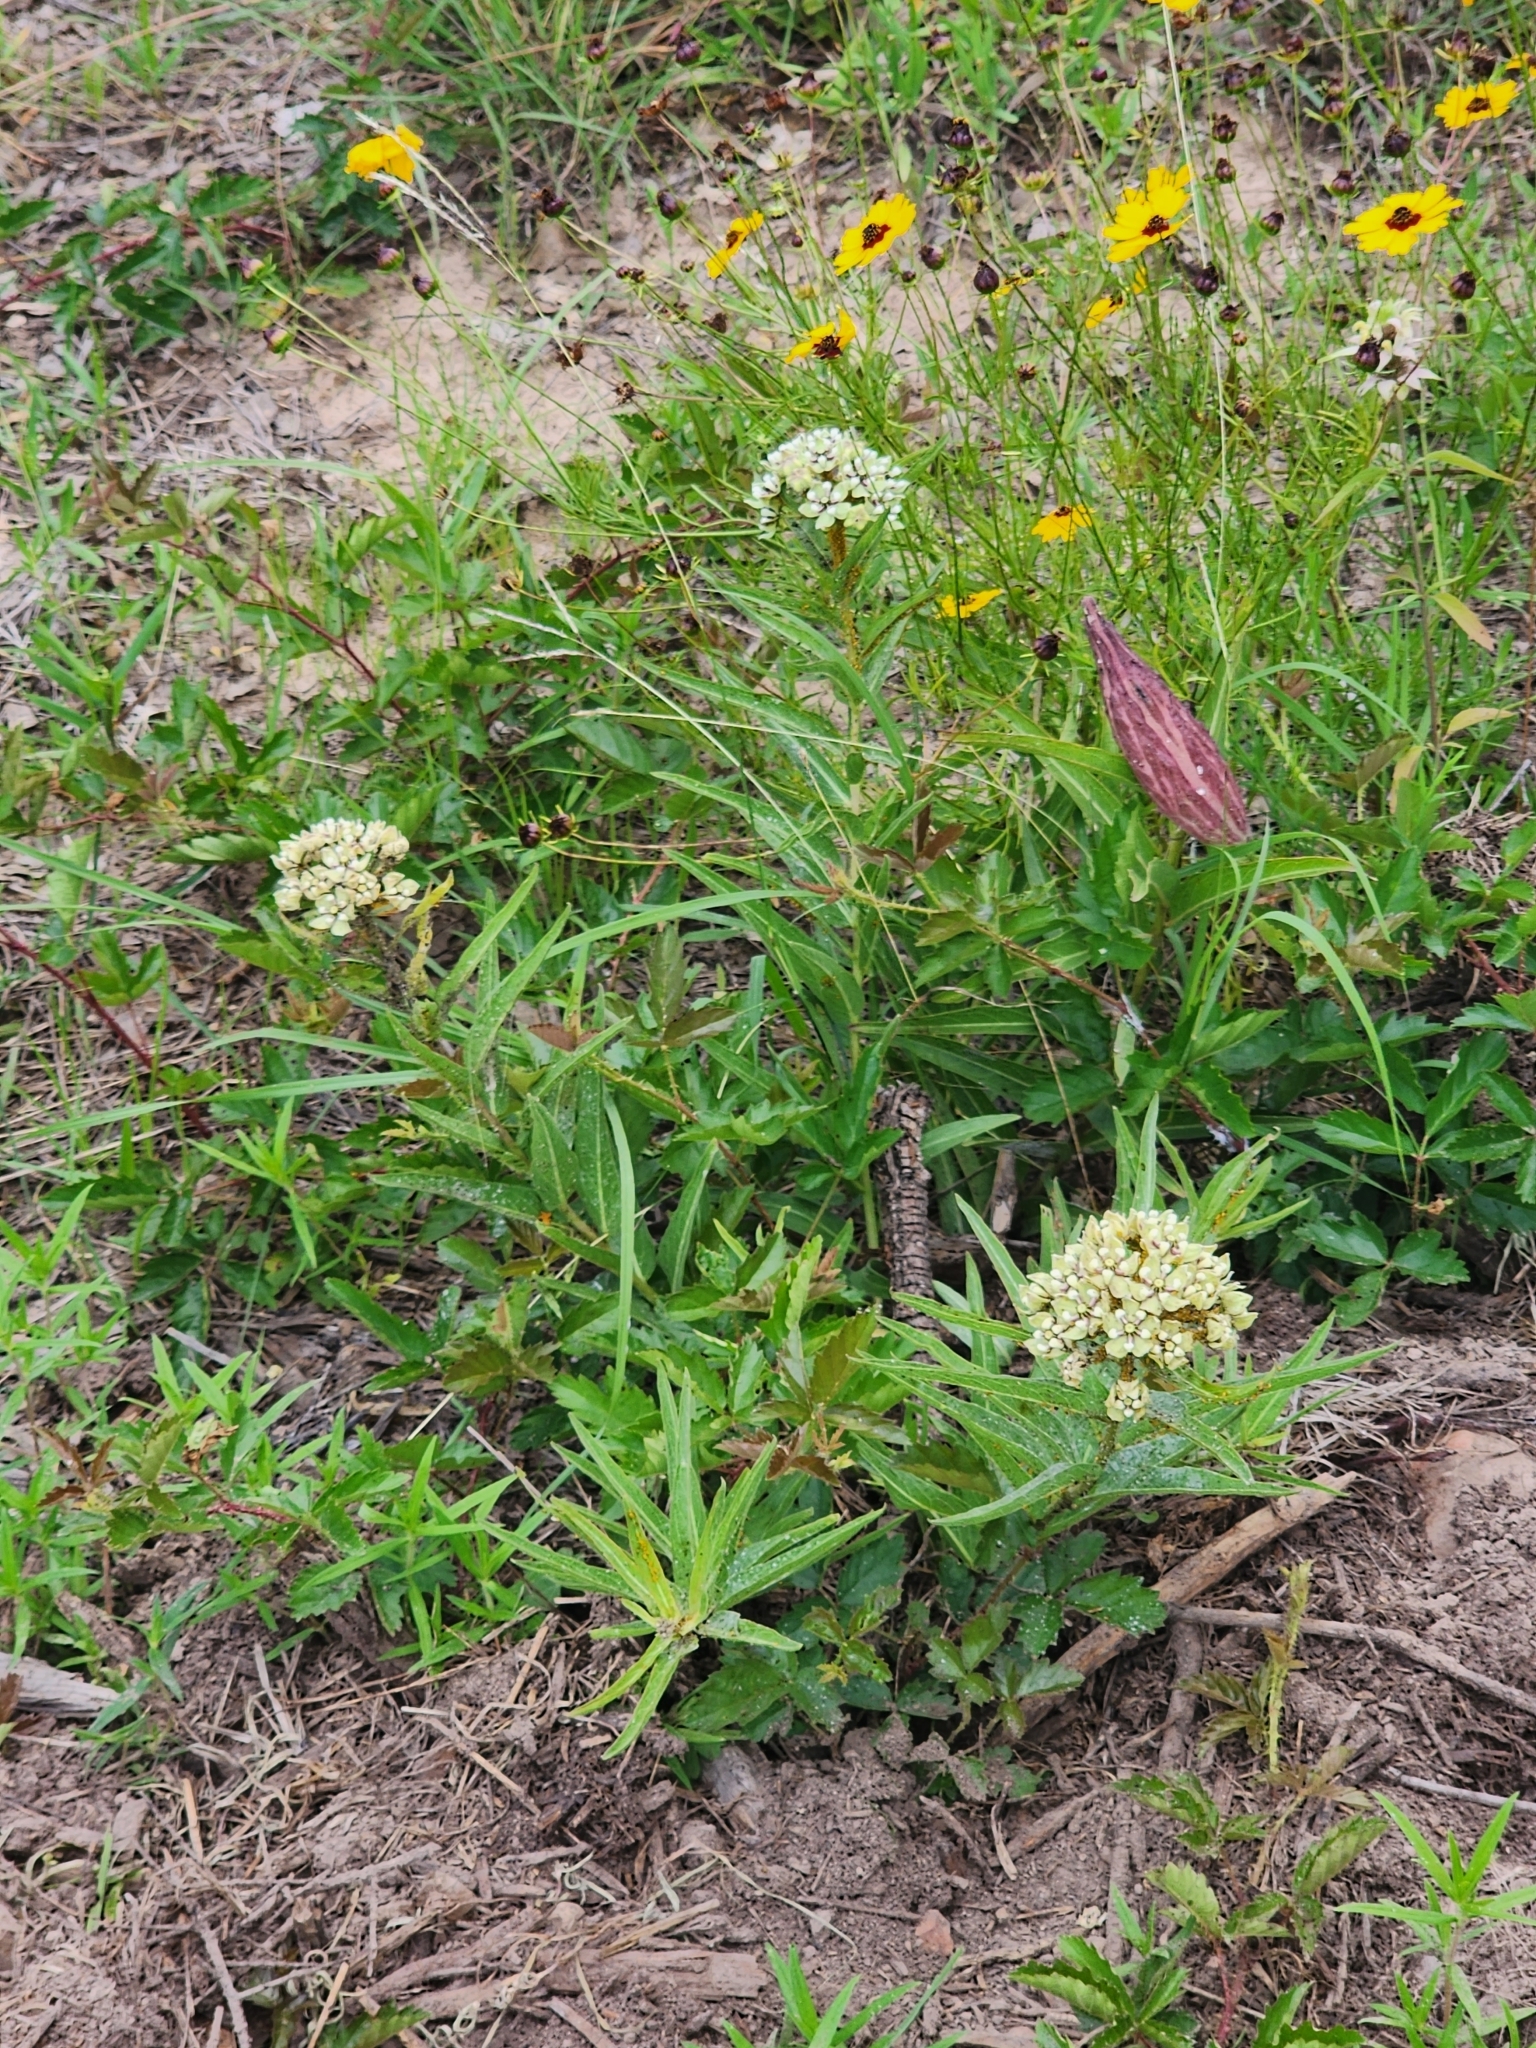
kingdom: Plantae
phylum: Tracheophyta
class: Magnoliopsida
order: Gentianales
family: Apocynaceae
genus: Asclepias
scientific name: Asclepias asperula
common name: Antelope horns
